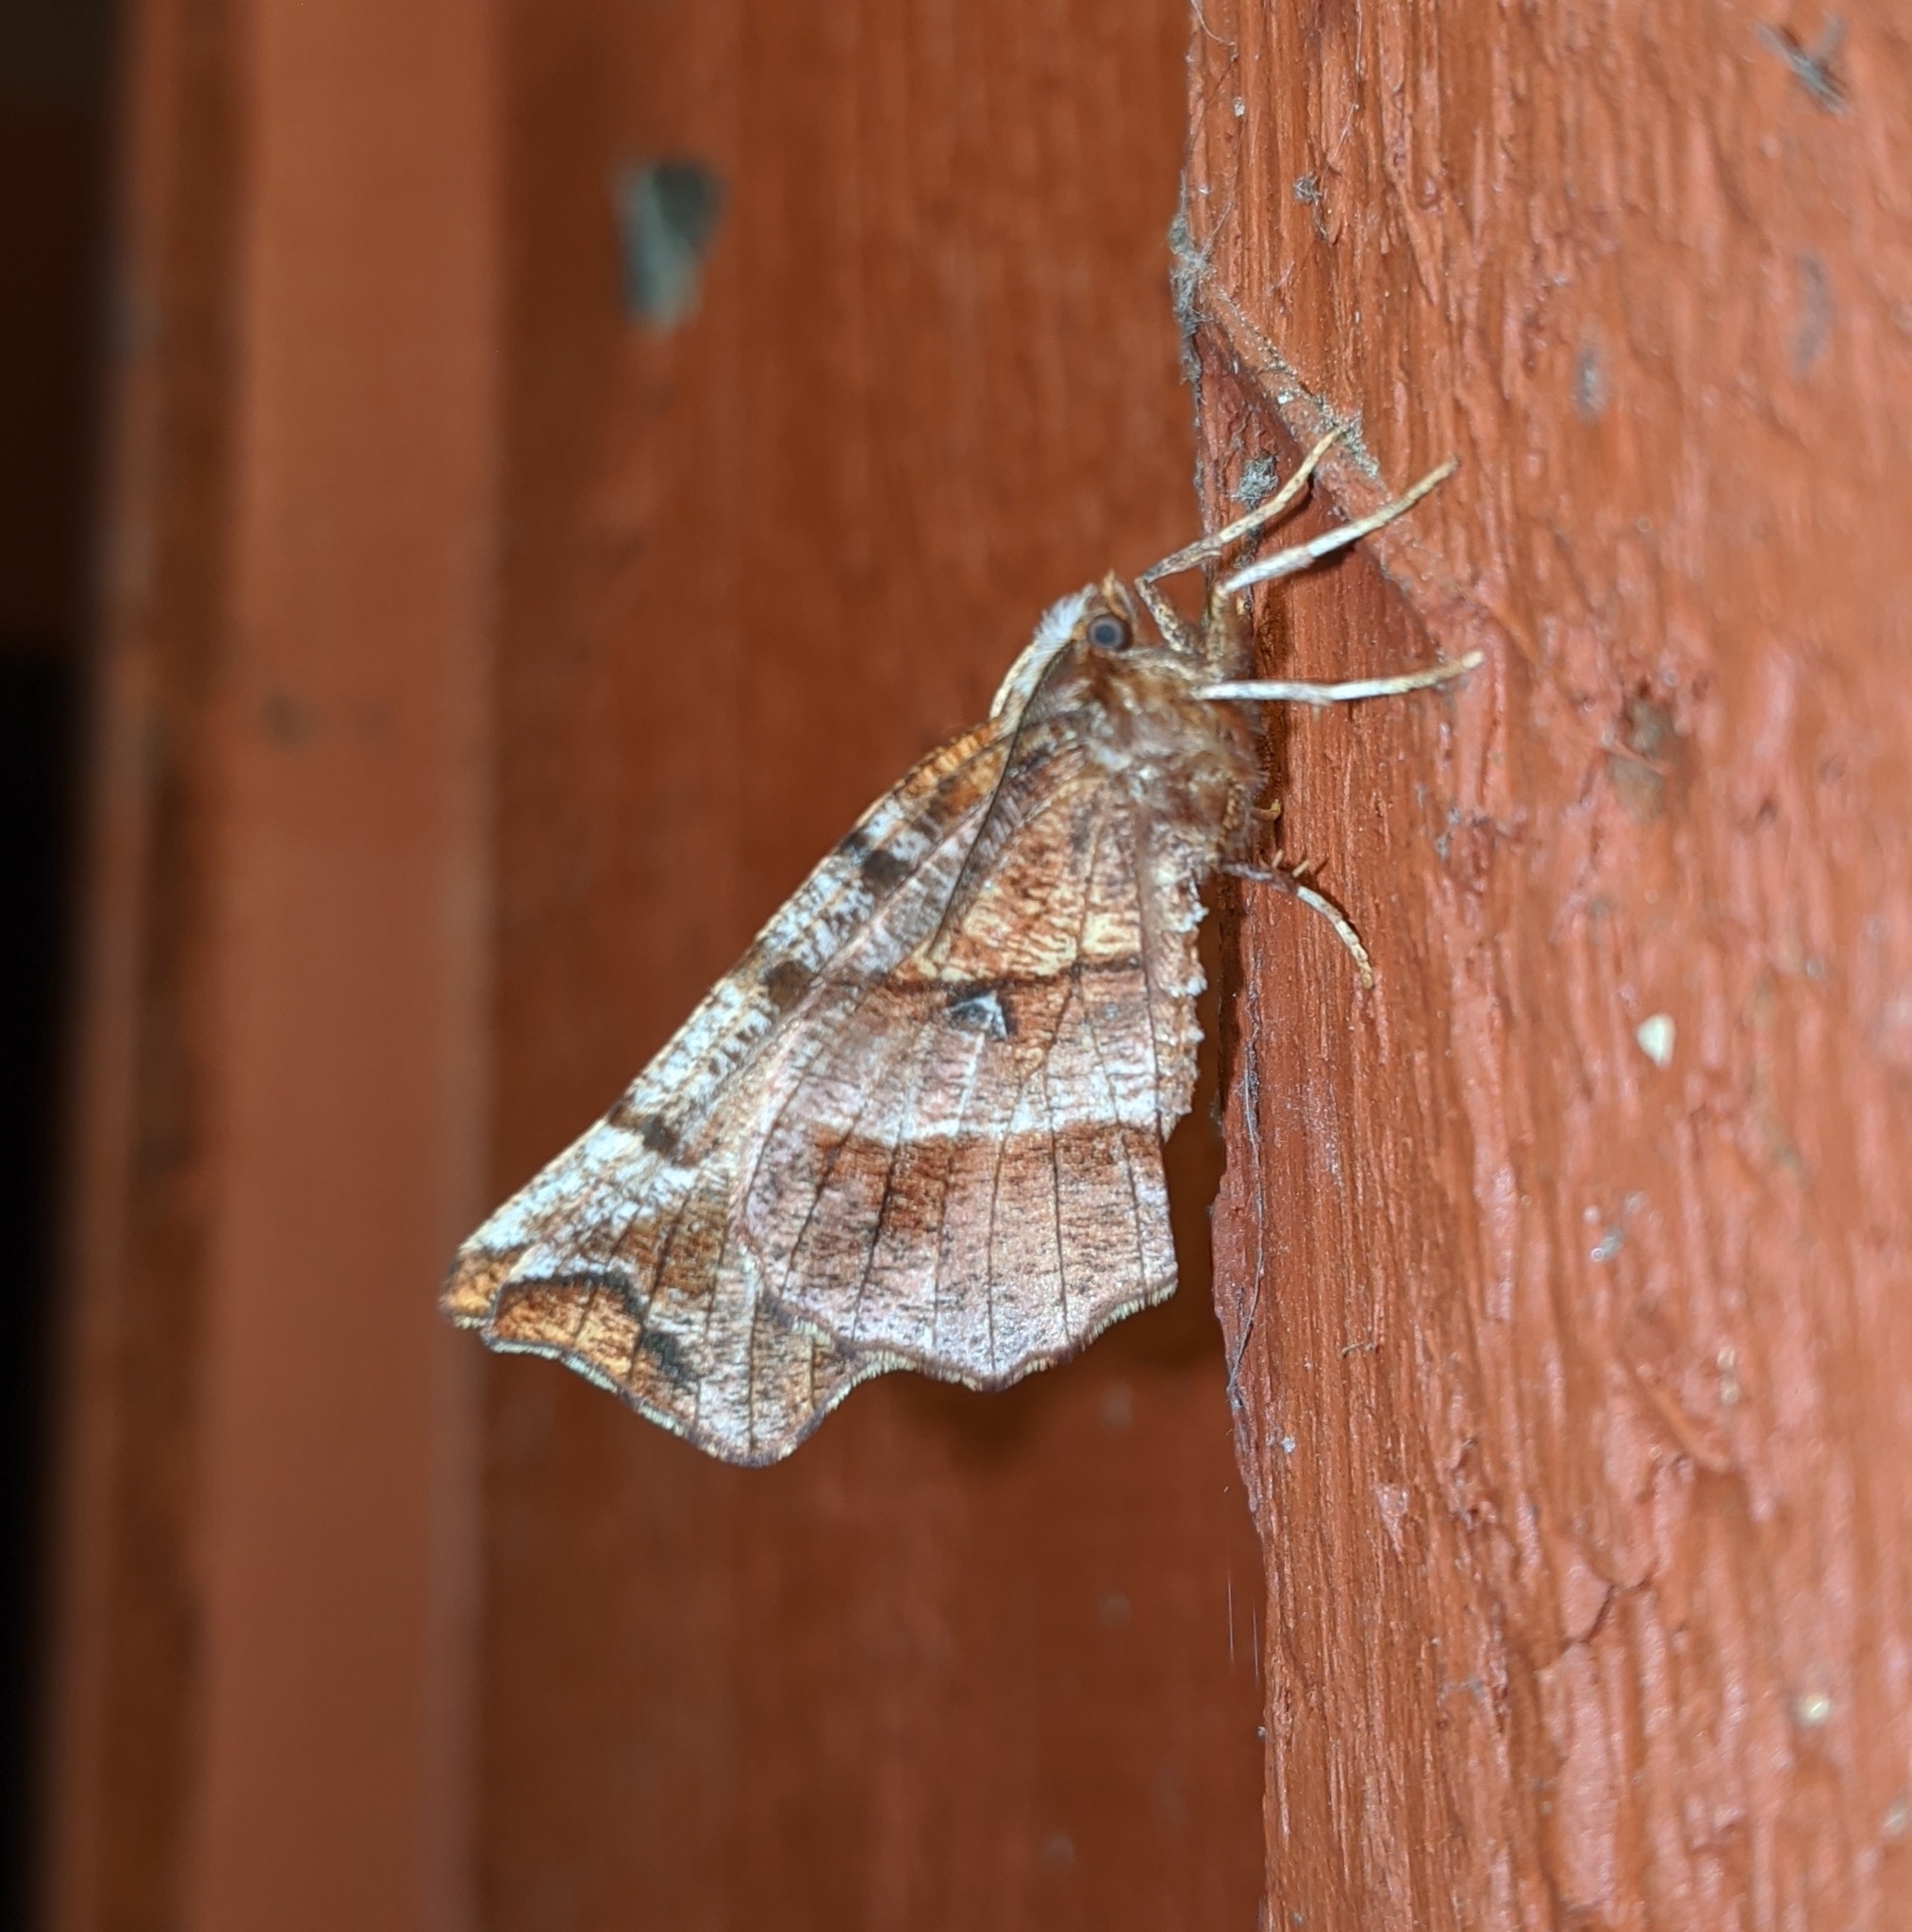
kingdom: Animalia
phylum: Arthropoda
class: Insecta
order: Lepidoptera
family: Geometridae
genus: Selenia
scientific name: Selenia alciphearia
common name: Brown-tipped thorn
